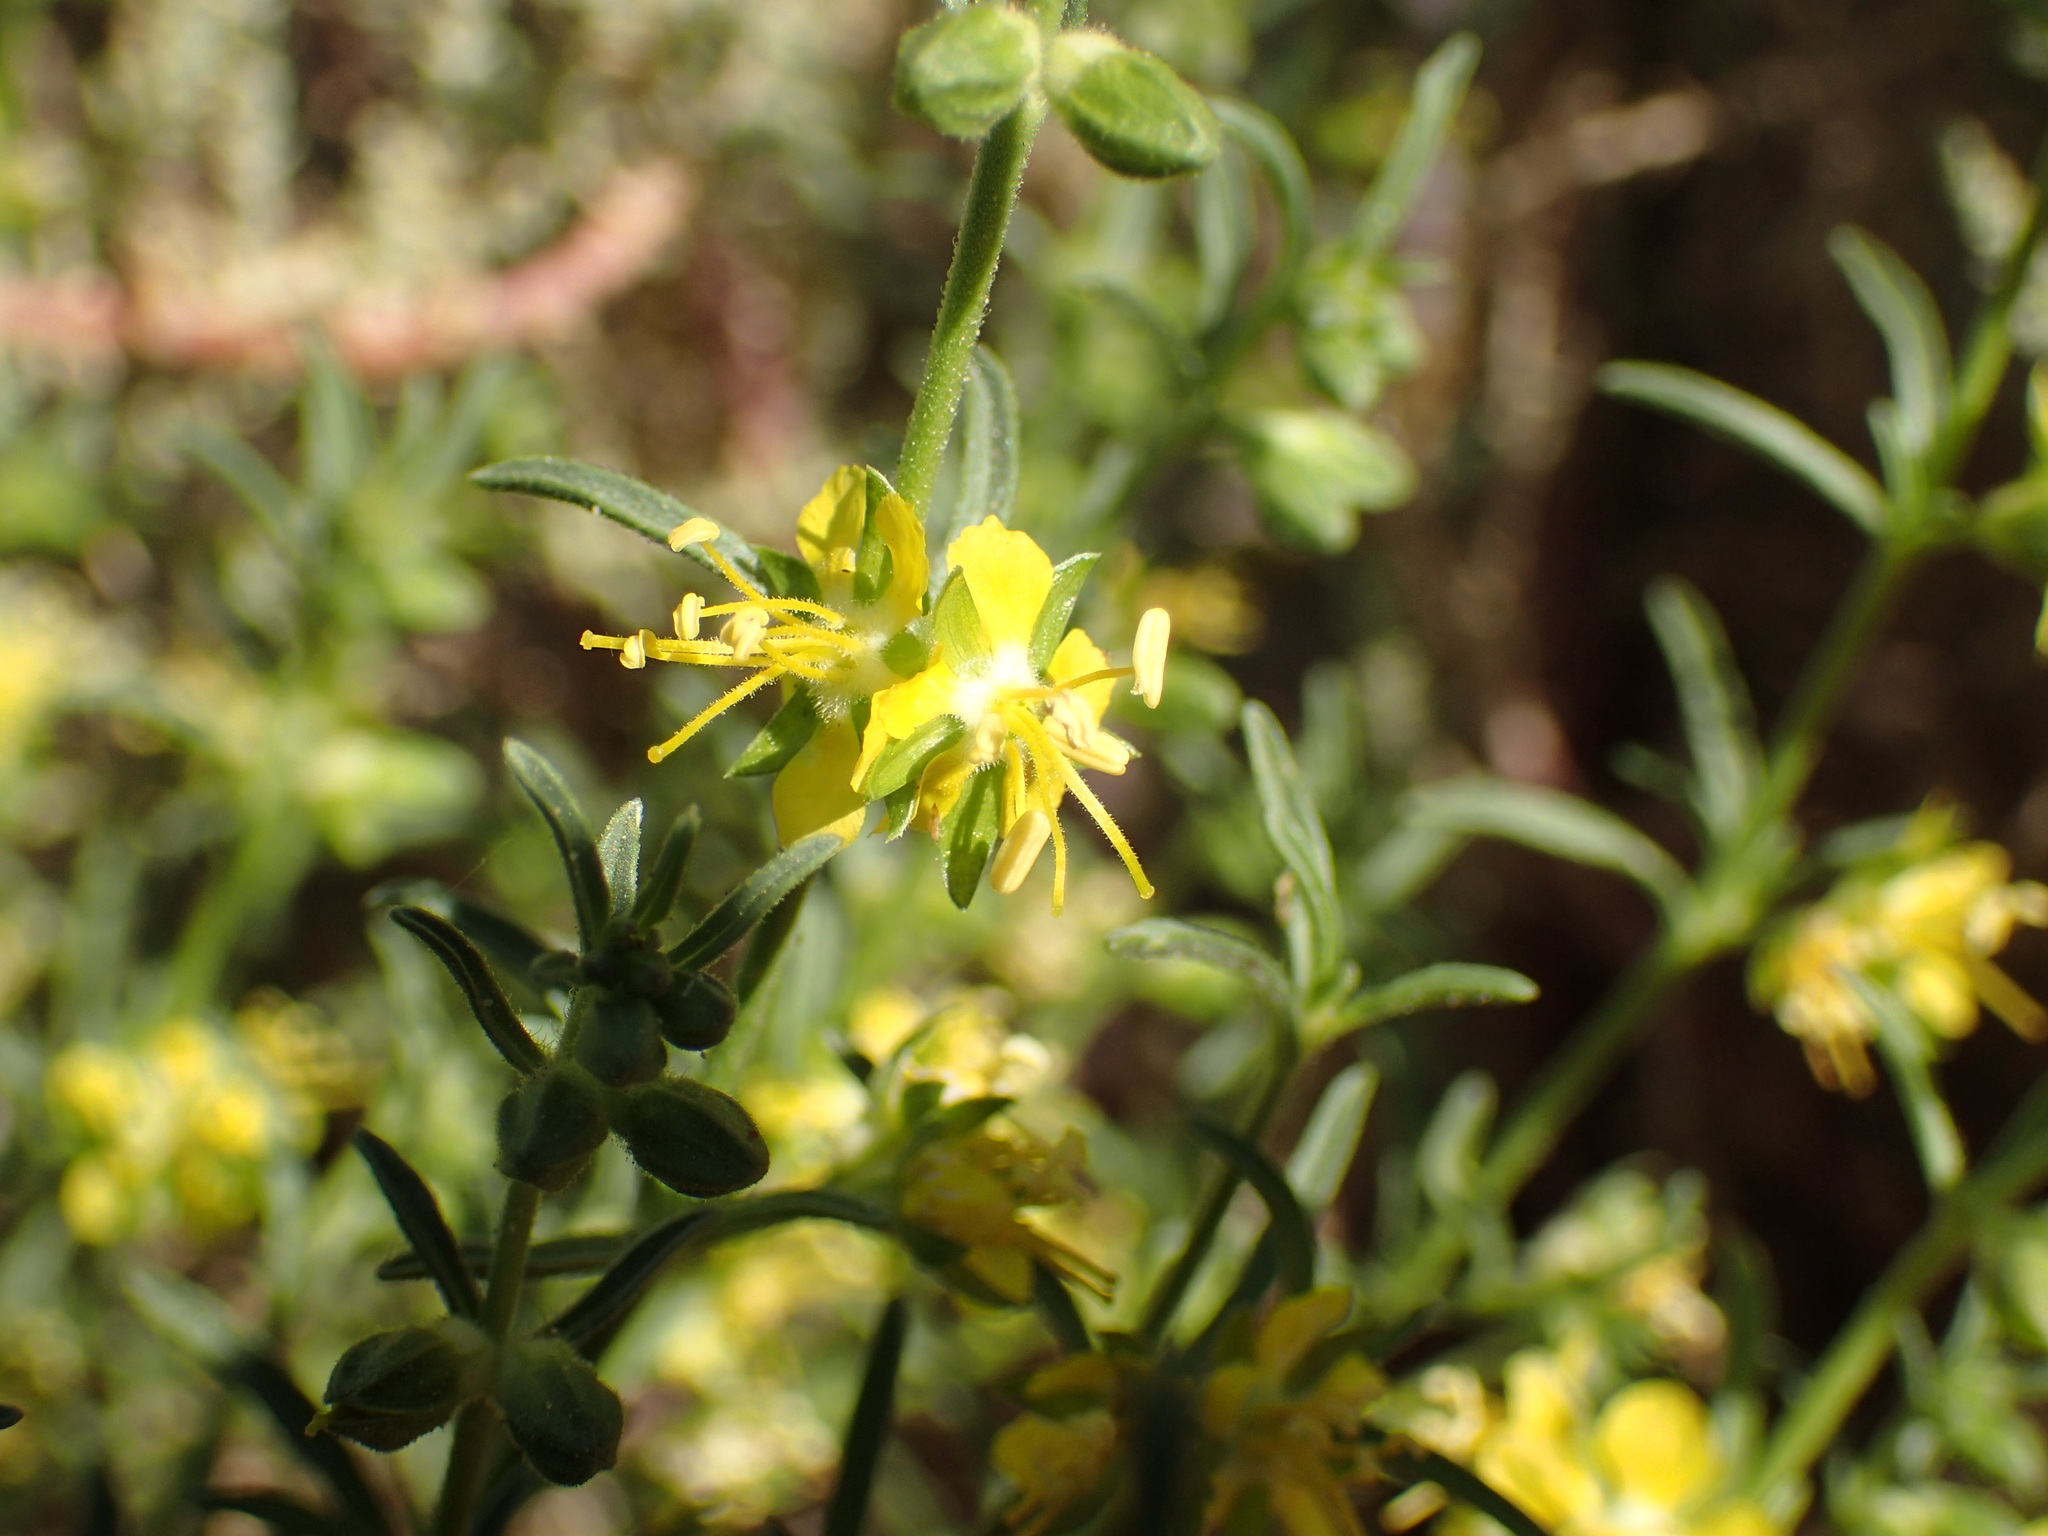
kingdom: Plantae
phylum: Tracheophyta
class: Magnoliopsida
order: Vahliales
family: Vahliaceae
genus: Vahlia
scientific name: Vahlia capensis
